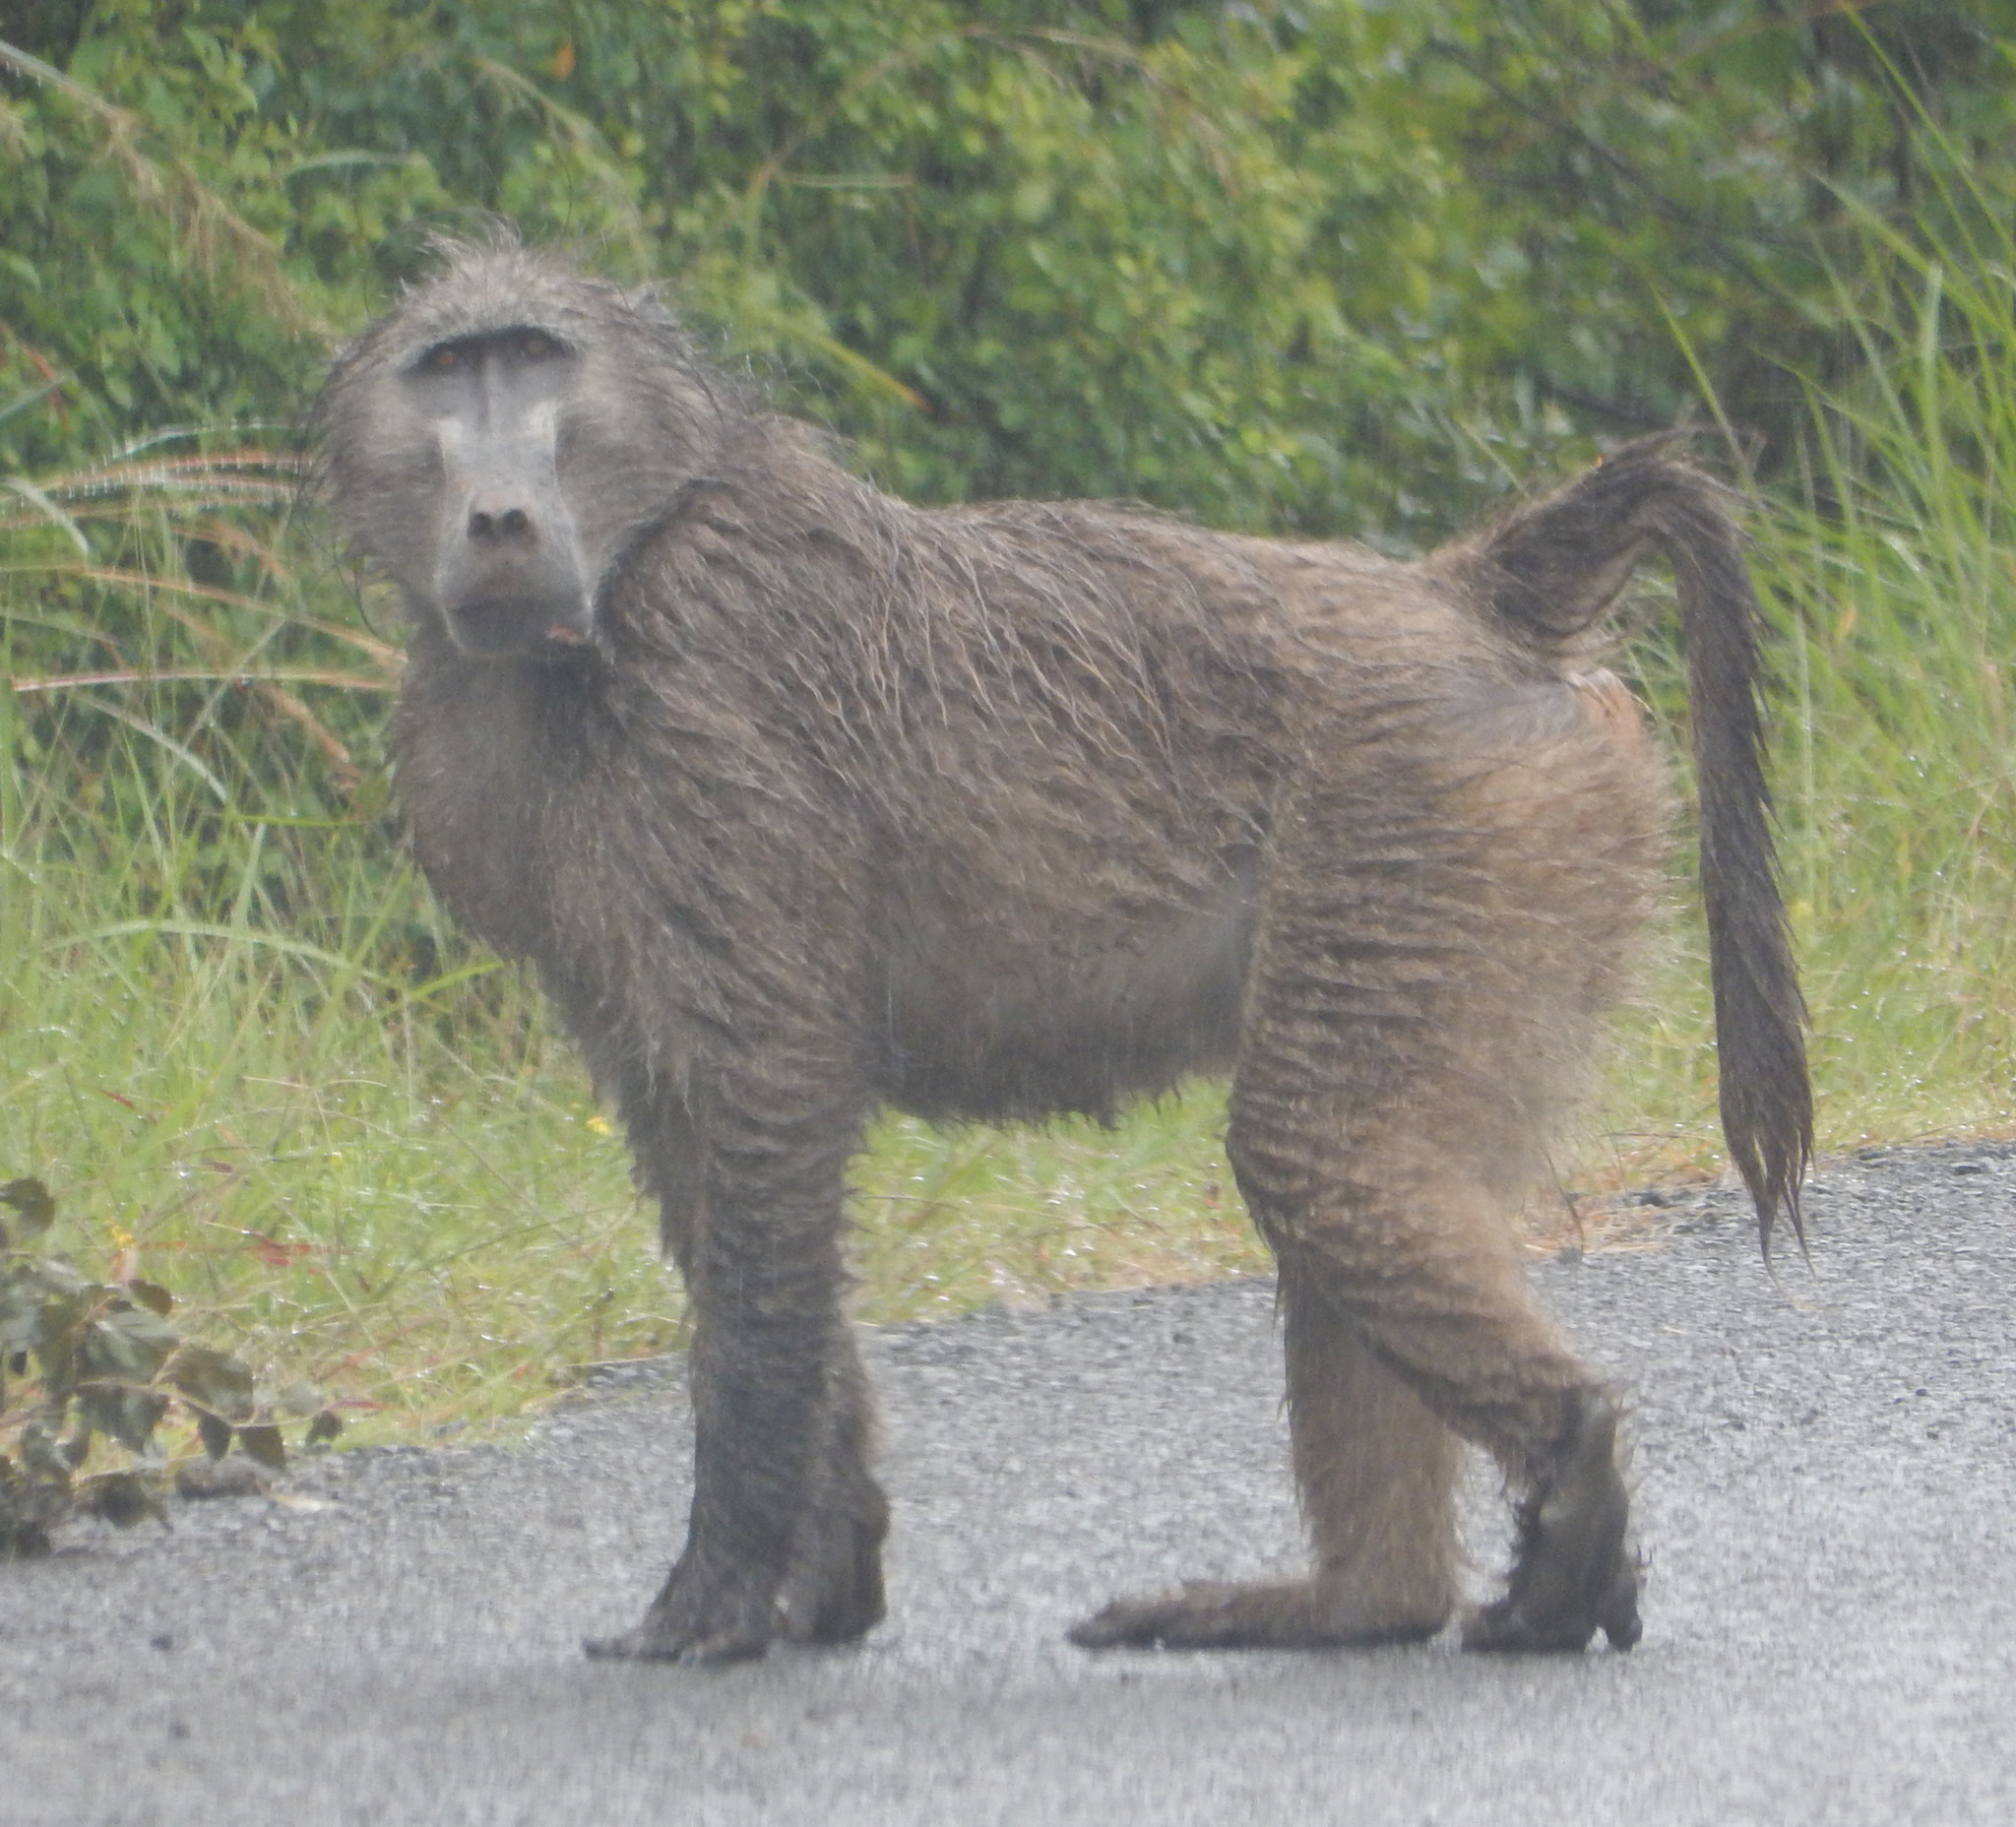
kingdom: Animalia
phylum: Chordata
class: Mammalia
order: Primates
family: Cercopithecidae
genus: Papio
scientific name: Papio ursinus
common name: Chacma baboon
